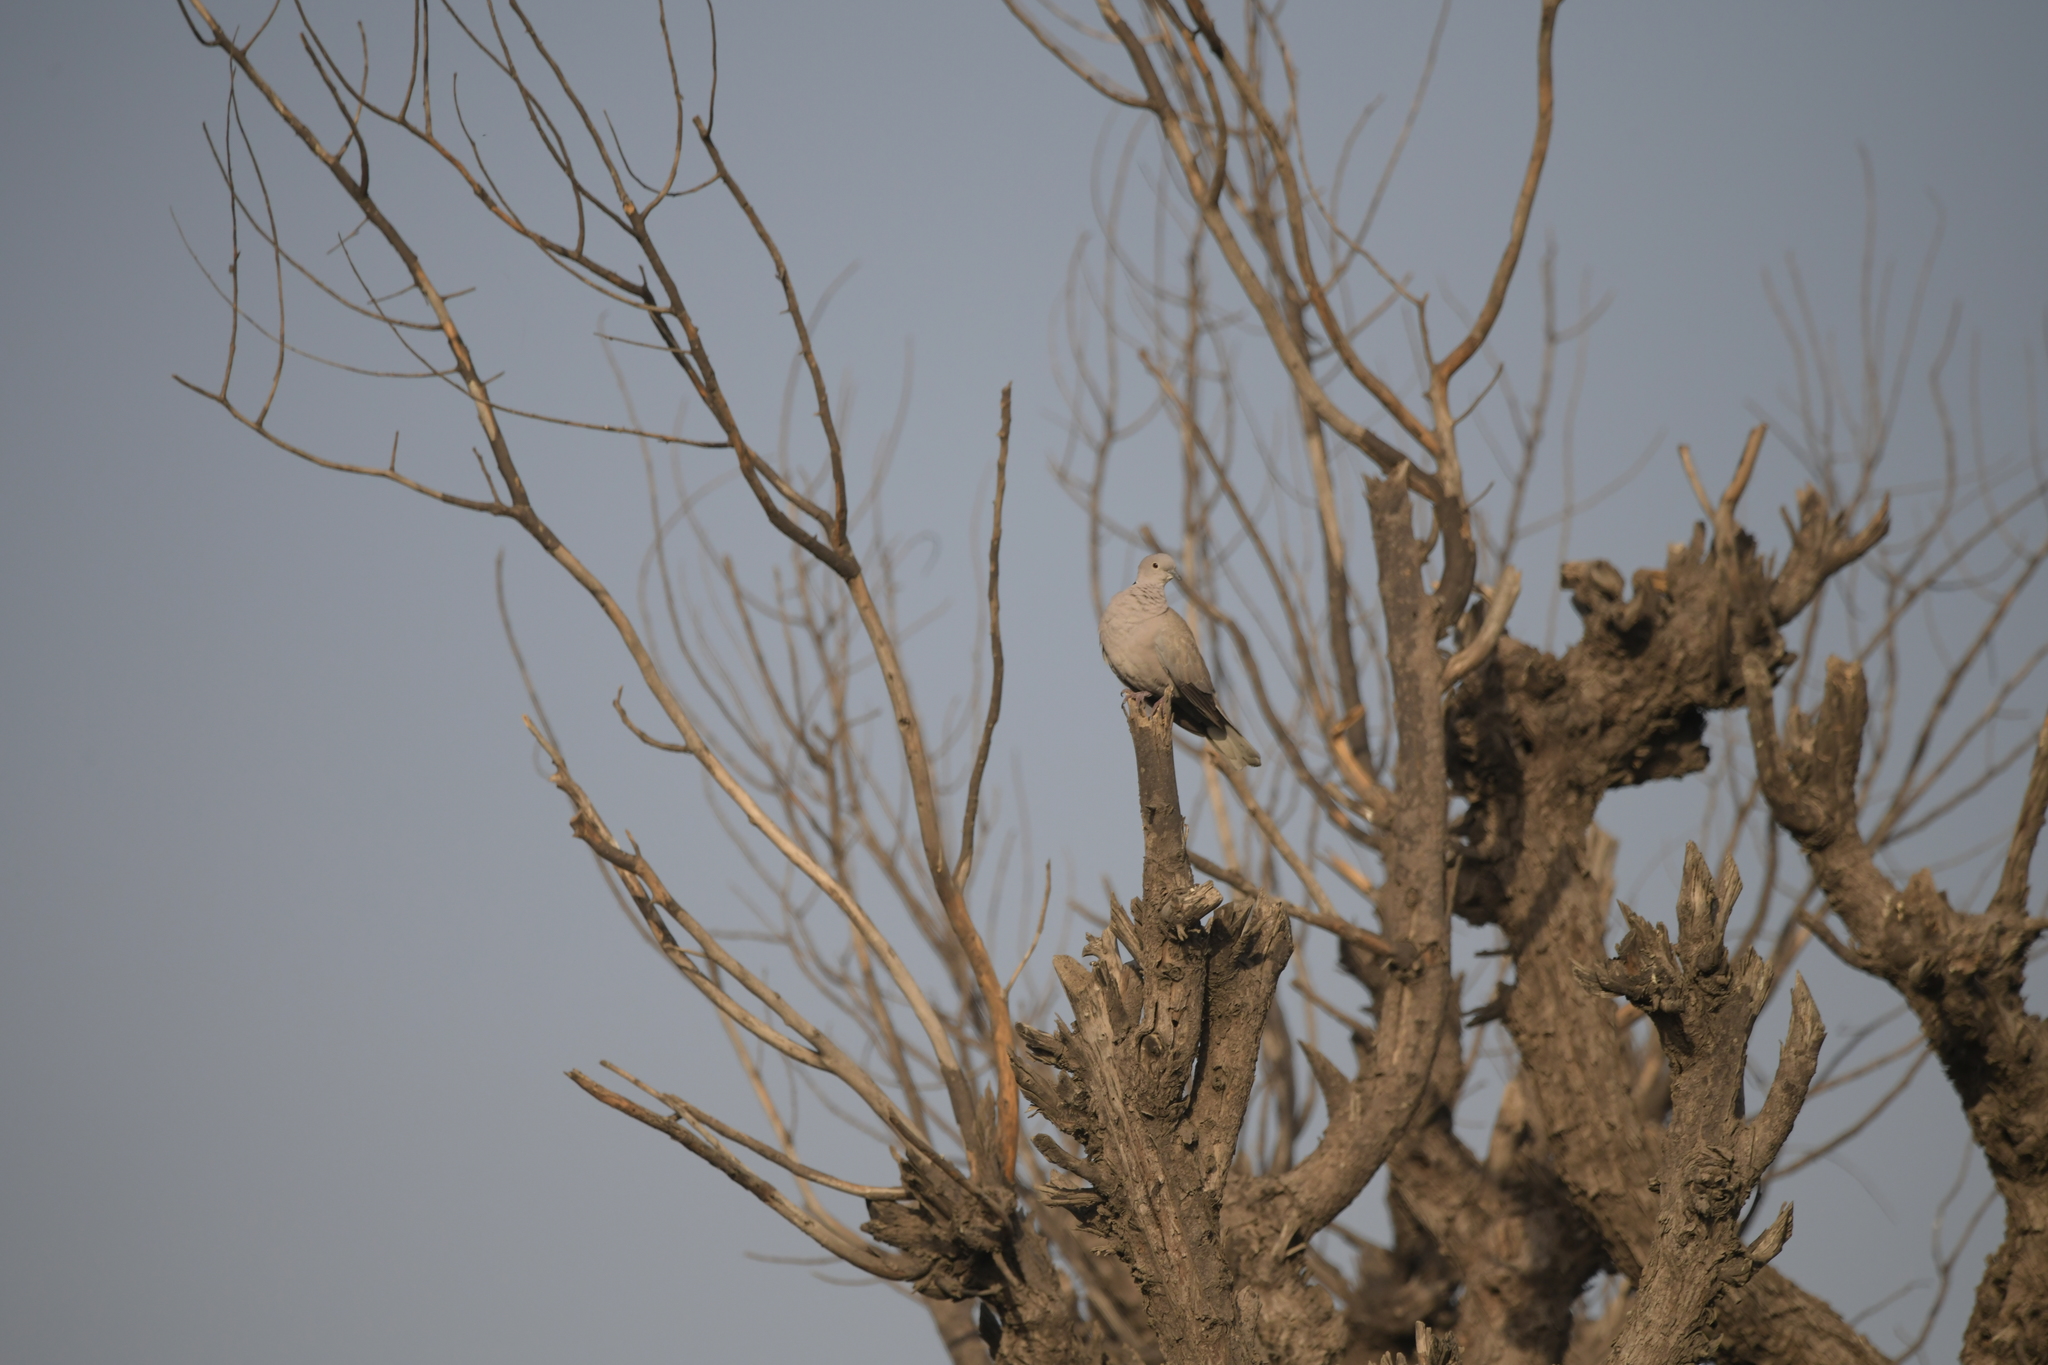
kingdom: Animalia
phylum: Chordata
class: Aves
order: Columbiformes
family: Columbidae
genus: Streptopelia
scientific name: Streptopelia decaocto
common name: Eurasian collared dove
